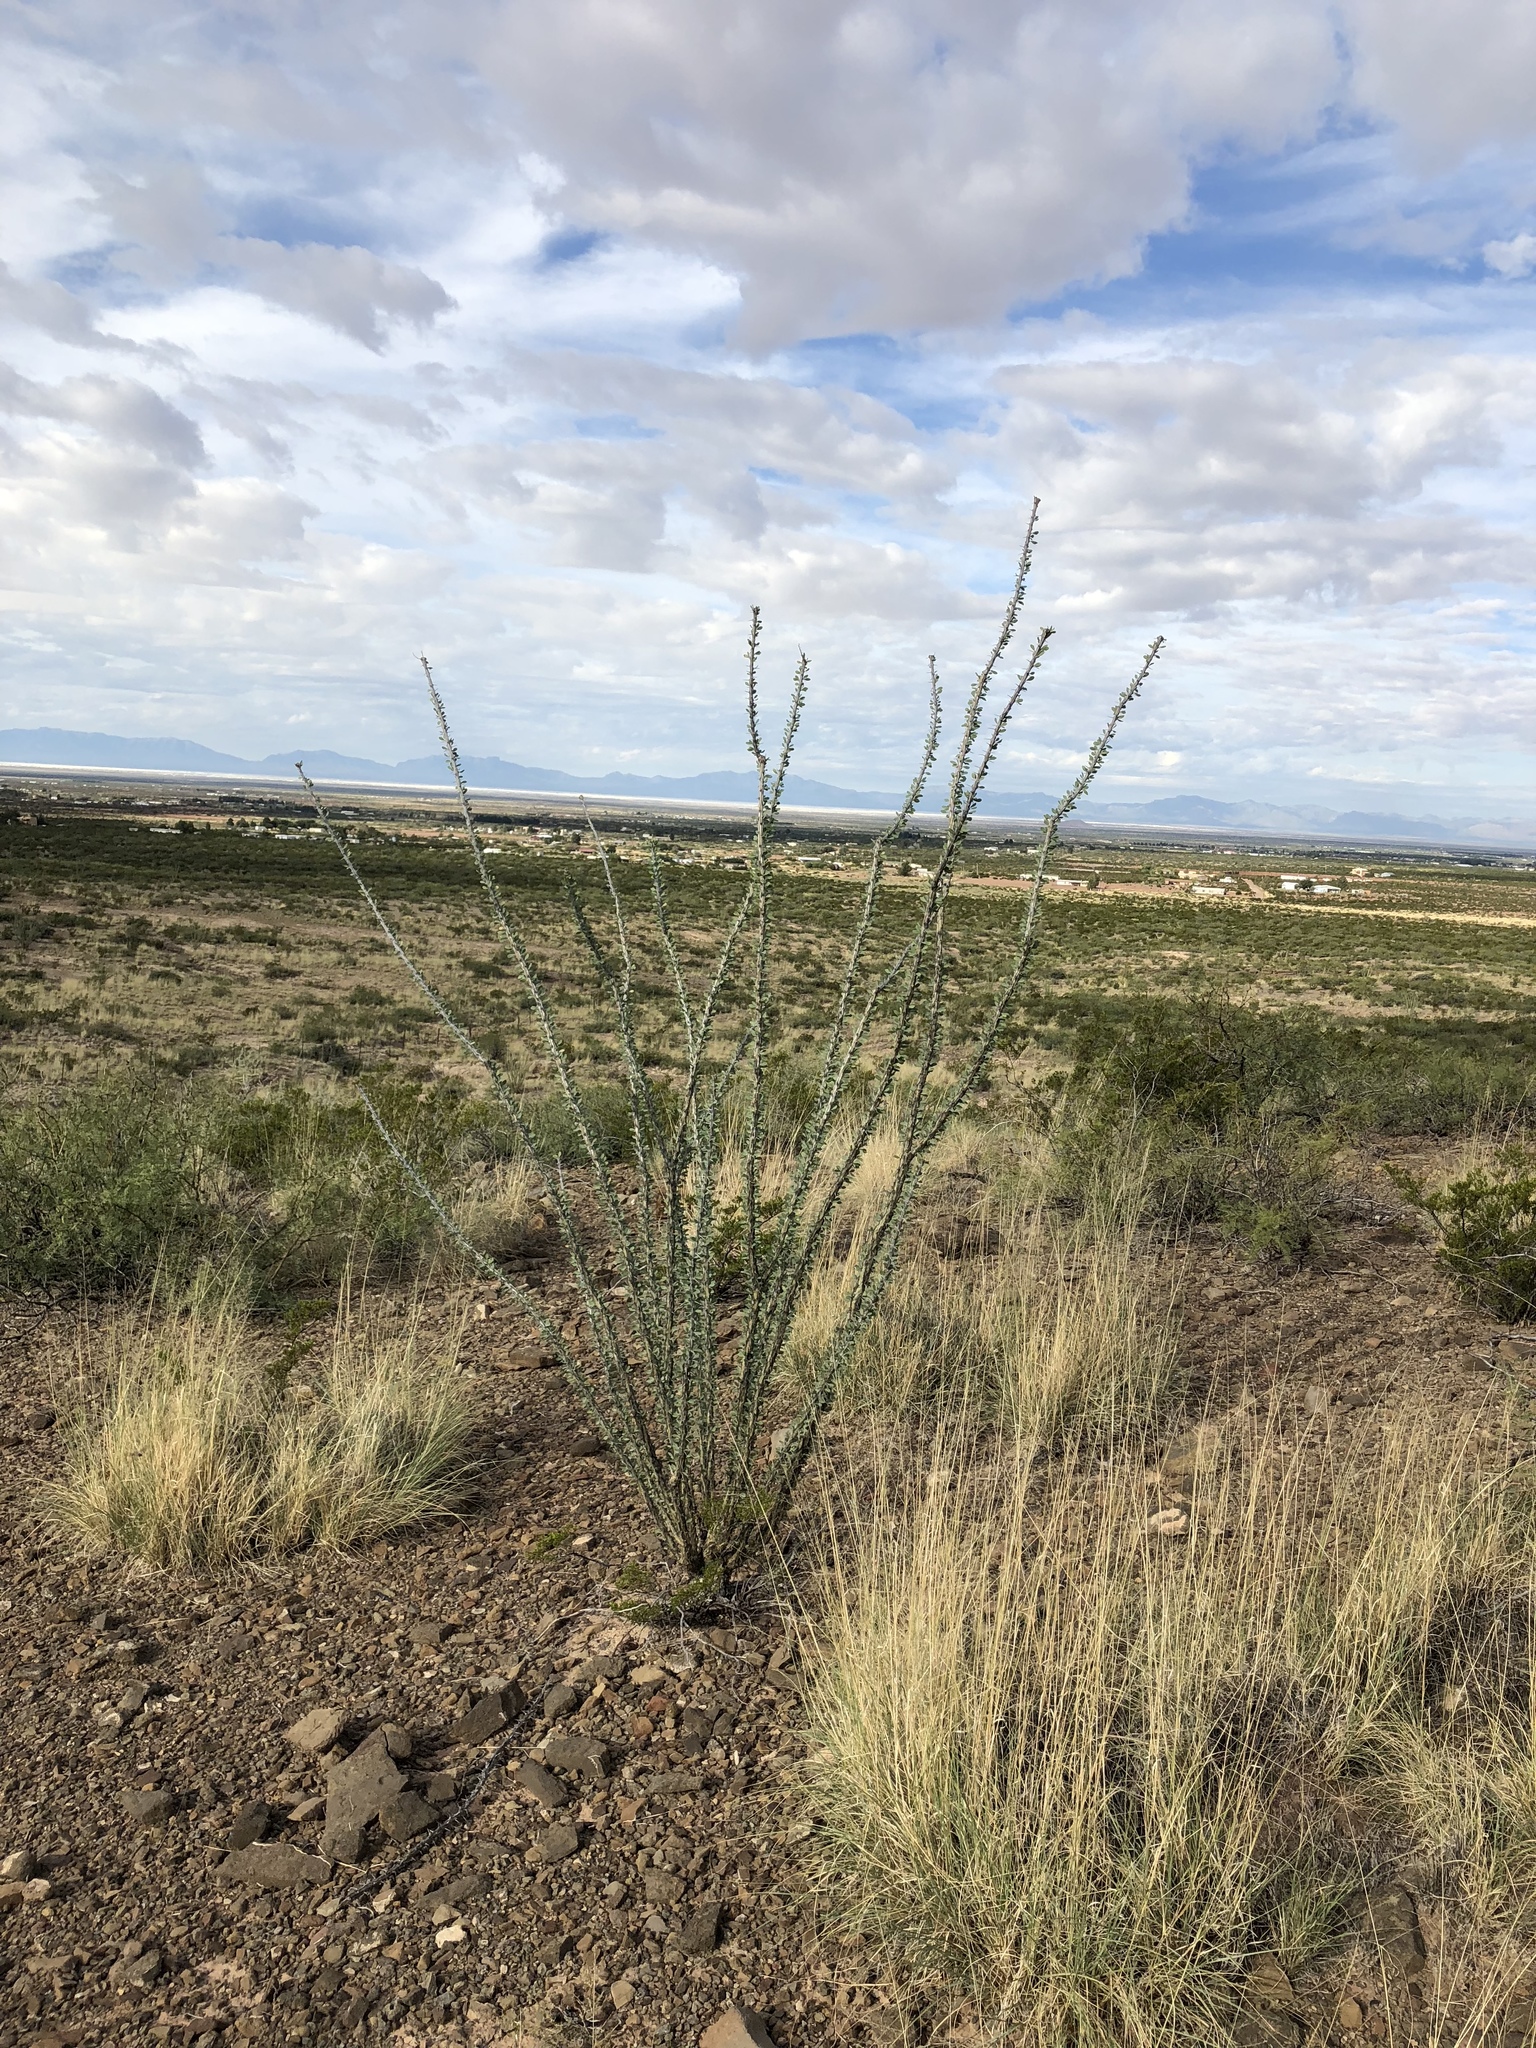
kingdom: Plantae
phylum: Tracheophyta
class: Magnoliopsida
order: Ericales
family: Fouquieriaceae
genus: Fouquieria
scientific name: Fouquieria splendens
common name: Vine-cactus
